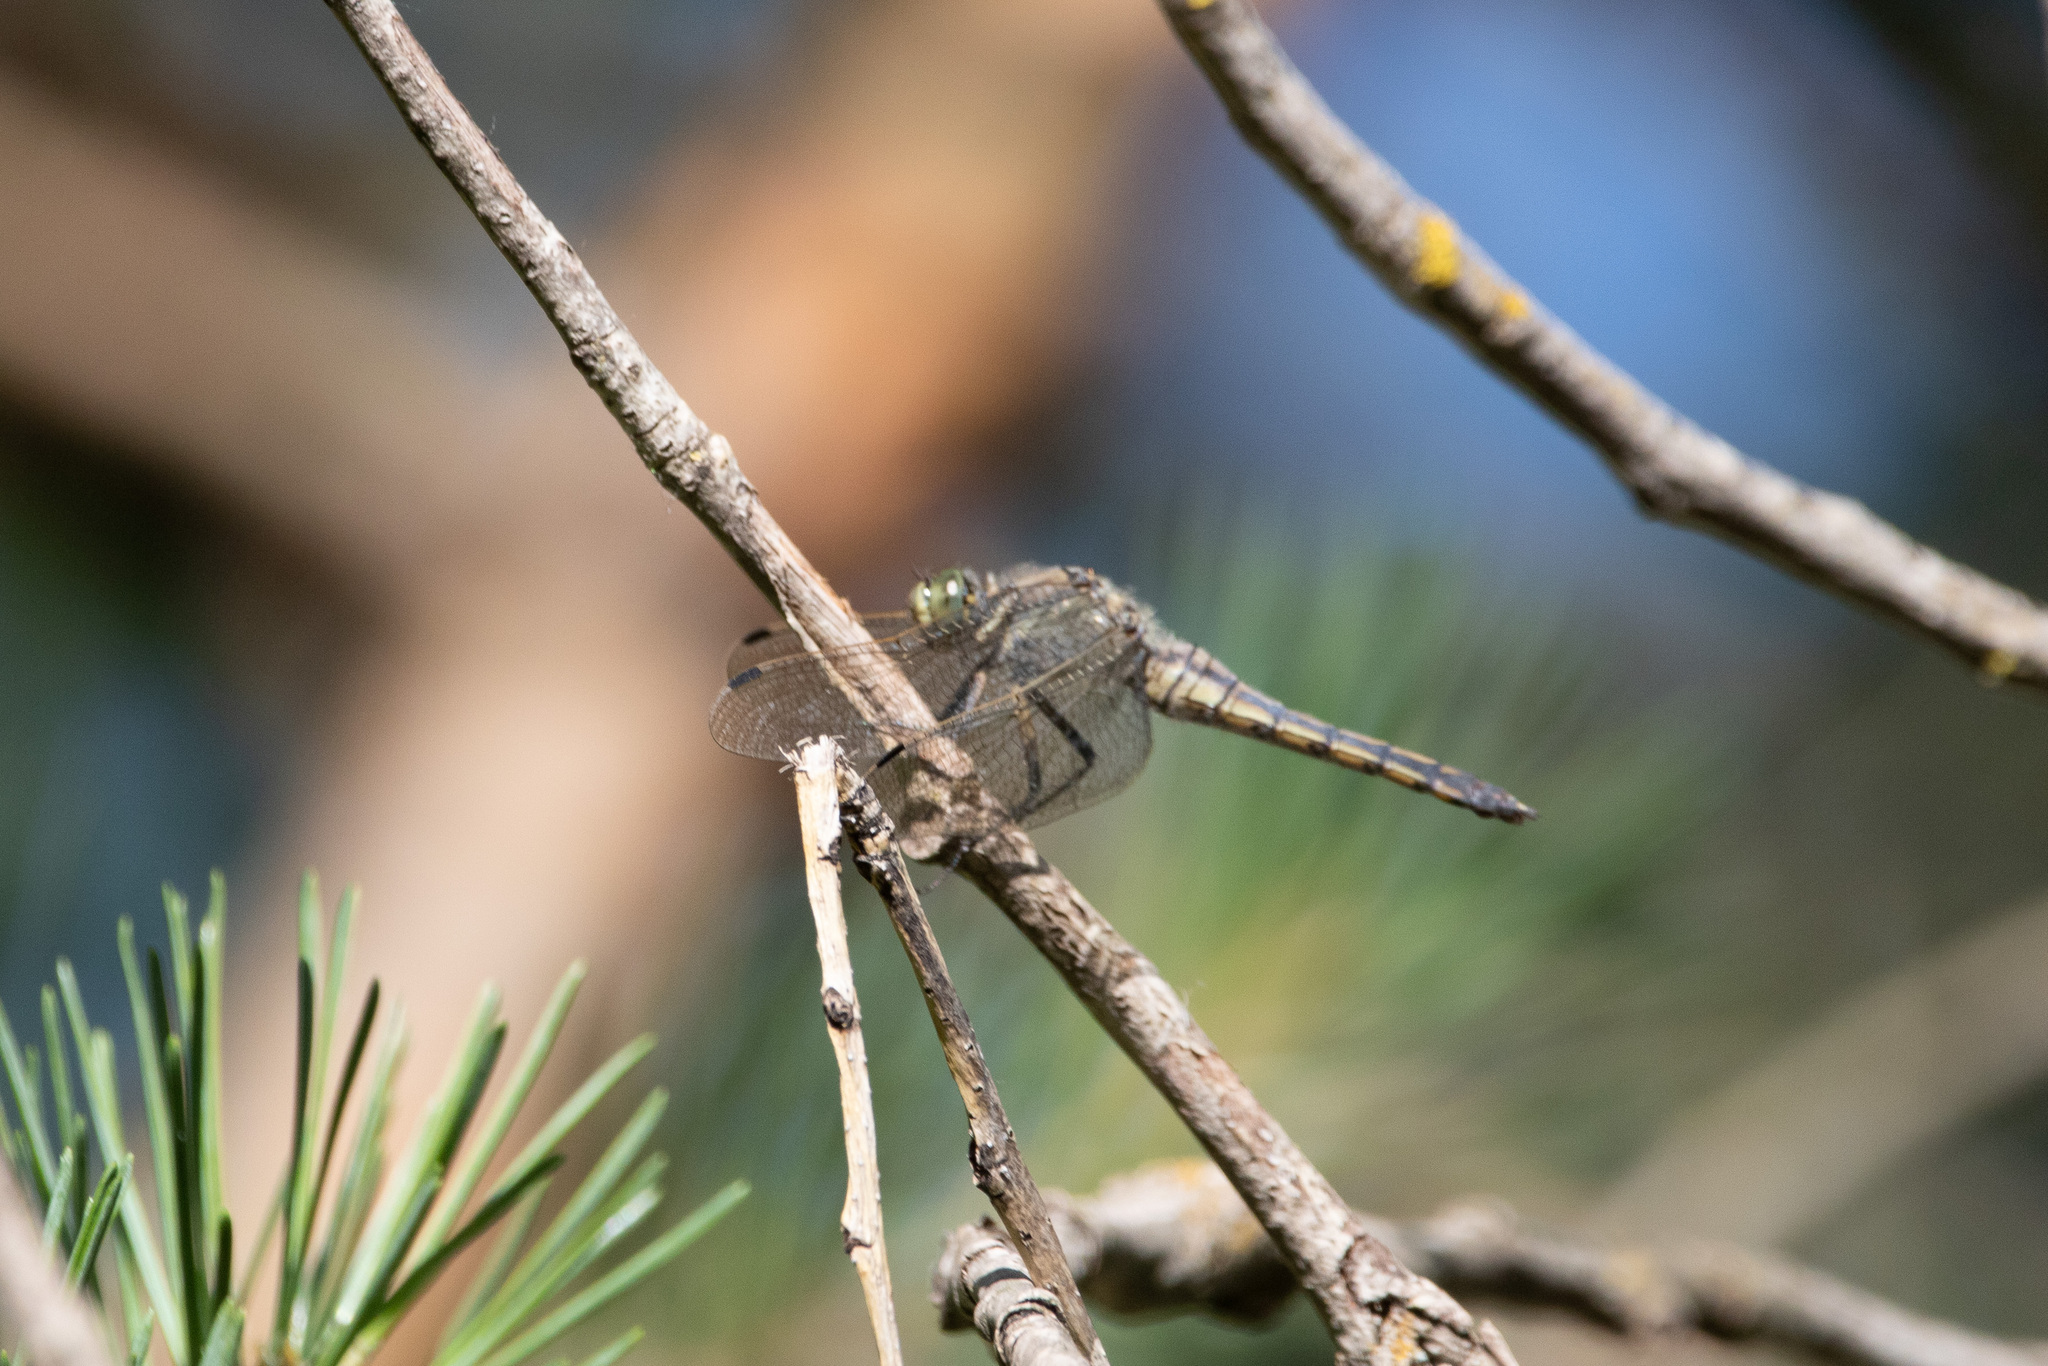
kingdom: Animalia
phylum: Arthropoda
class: Insecta
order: Odonata
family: Libellulidae
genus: Orthetrum
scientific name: Orthetrum cancellatum
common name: Black-tailed skimmer
